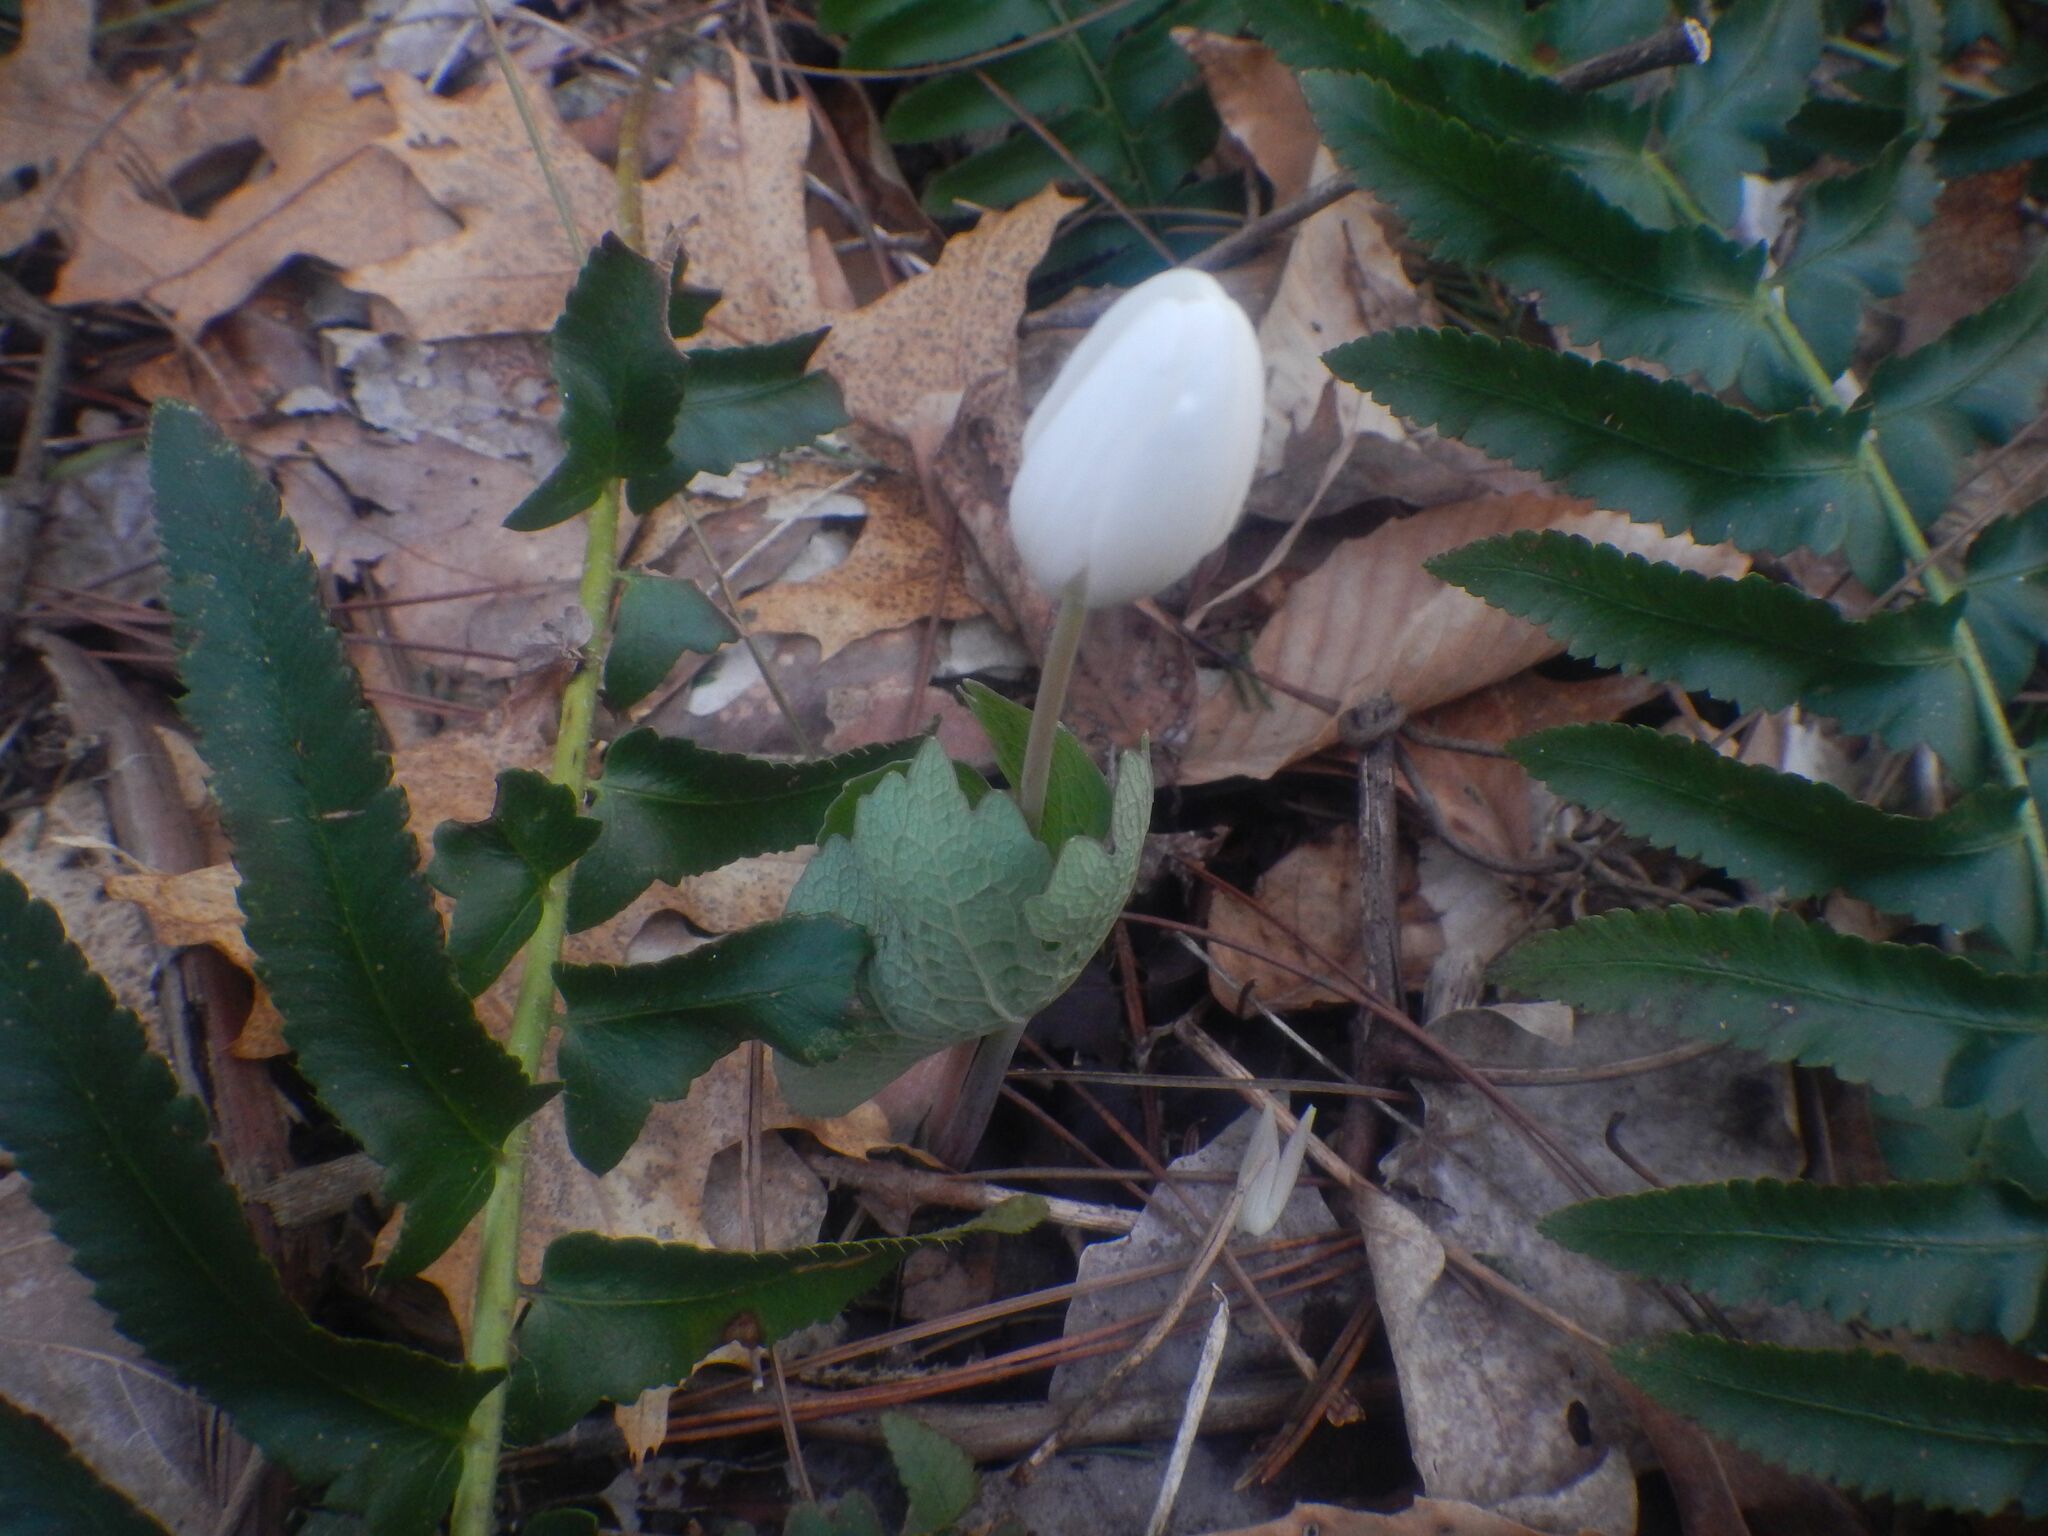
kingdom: Plantae
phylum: Tracheophyta
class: Magnoliopsida
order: Ranunculales
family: Papaveraceae
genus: Sanguinaria
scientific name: Sanguinaria canadensis
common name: Bloodroot
